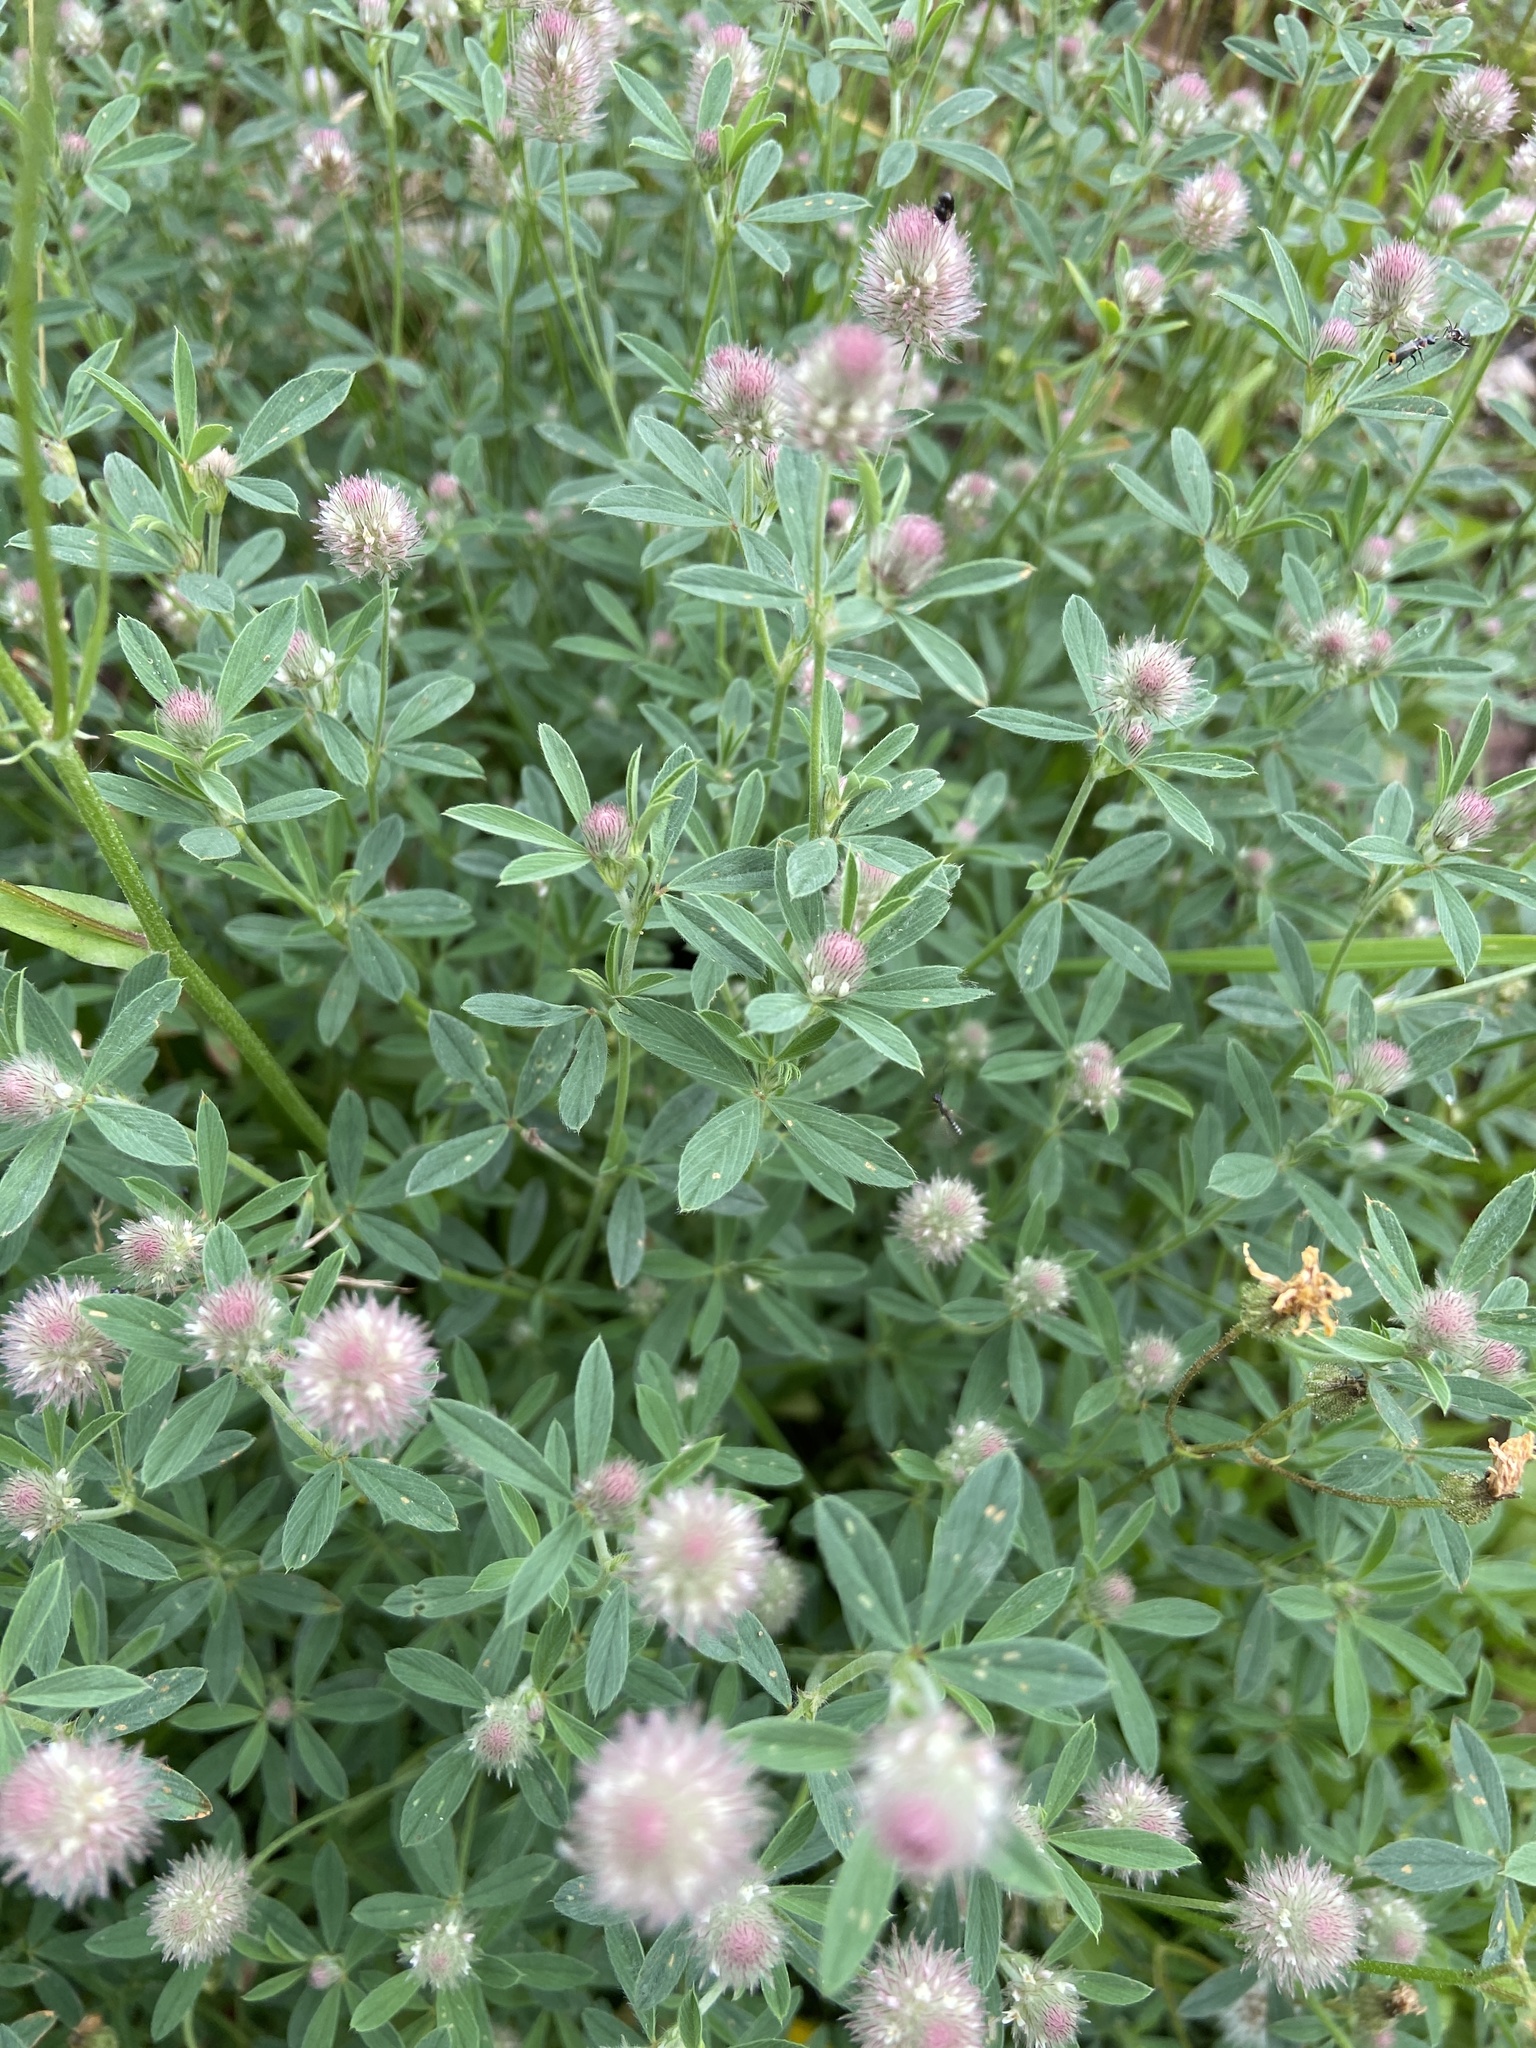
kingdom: Plantae
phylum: Tracheophyta
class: Magnoliopsida
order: Fabales
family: Fabaceae
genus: Trifolium
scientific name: Trifolium arvense
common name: Hare's-foot clover
